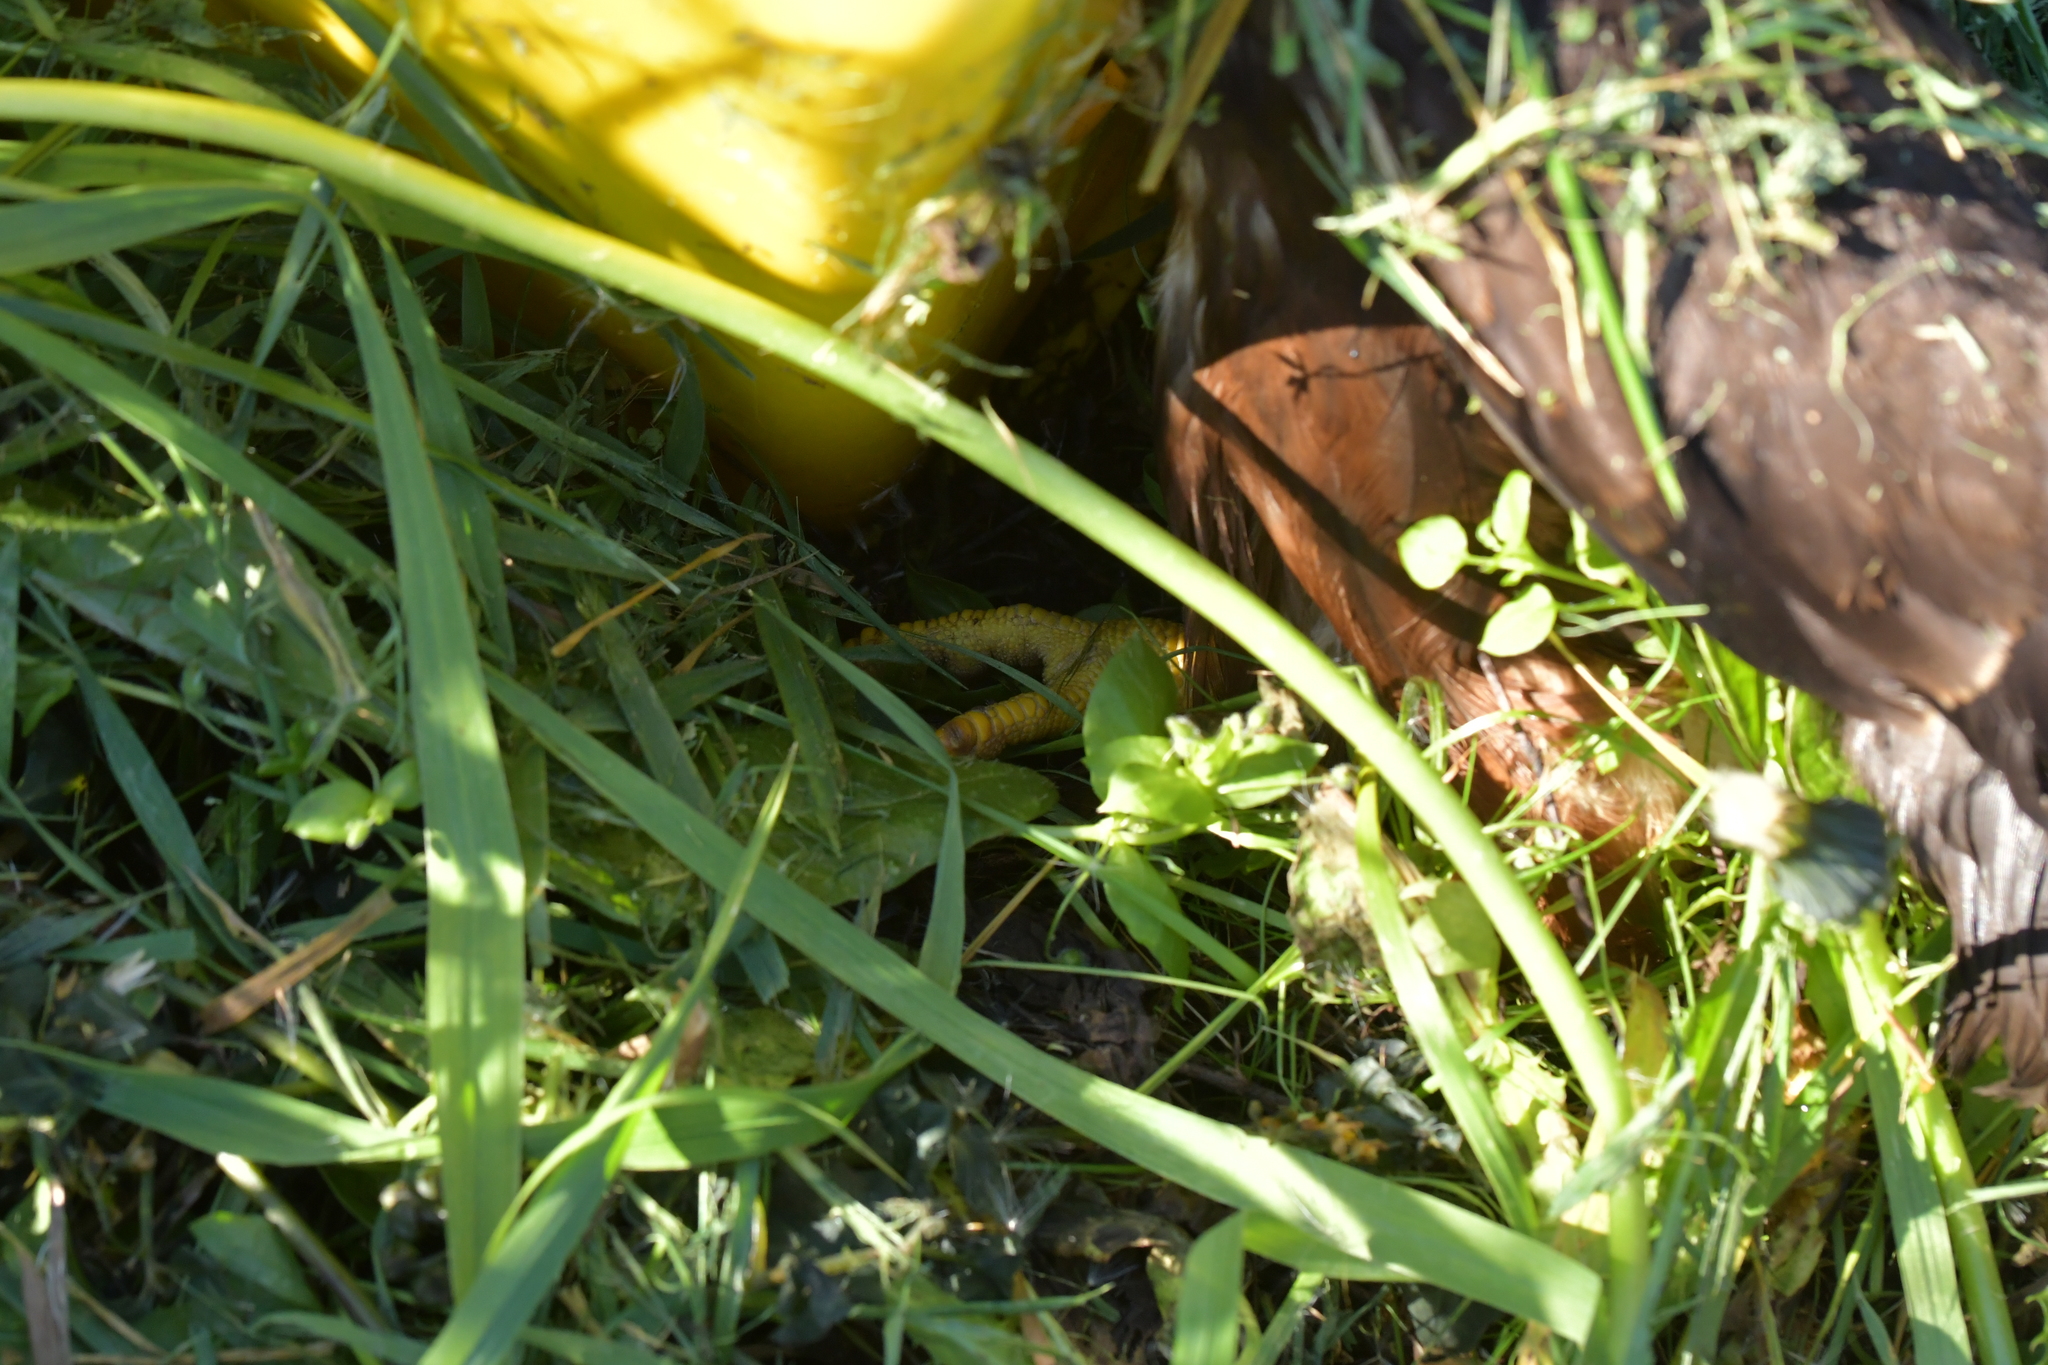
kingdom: Animalia
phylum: Chordata
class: Aves
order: Accipitriformes
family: Accipitridae
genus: Circus
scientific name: Circus approximans
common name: Swamp harrier
